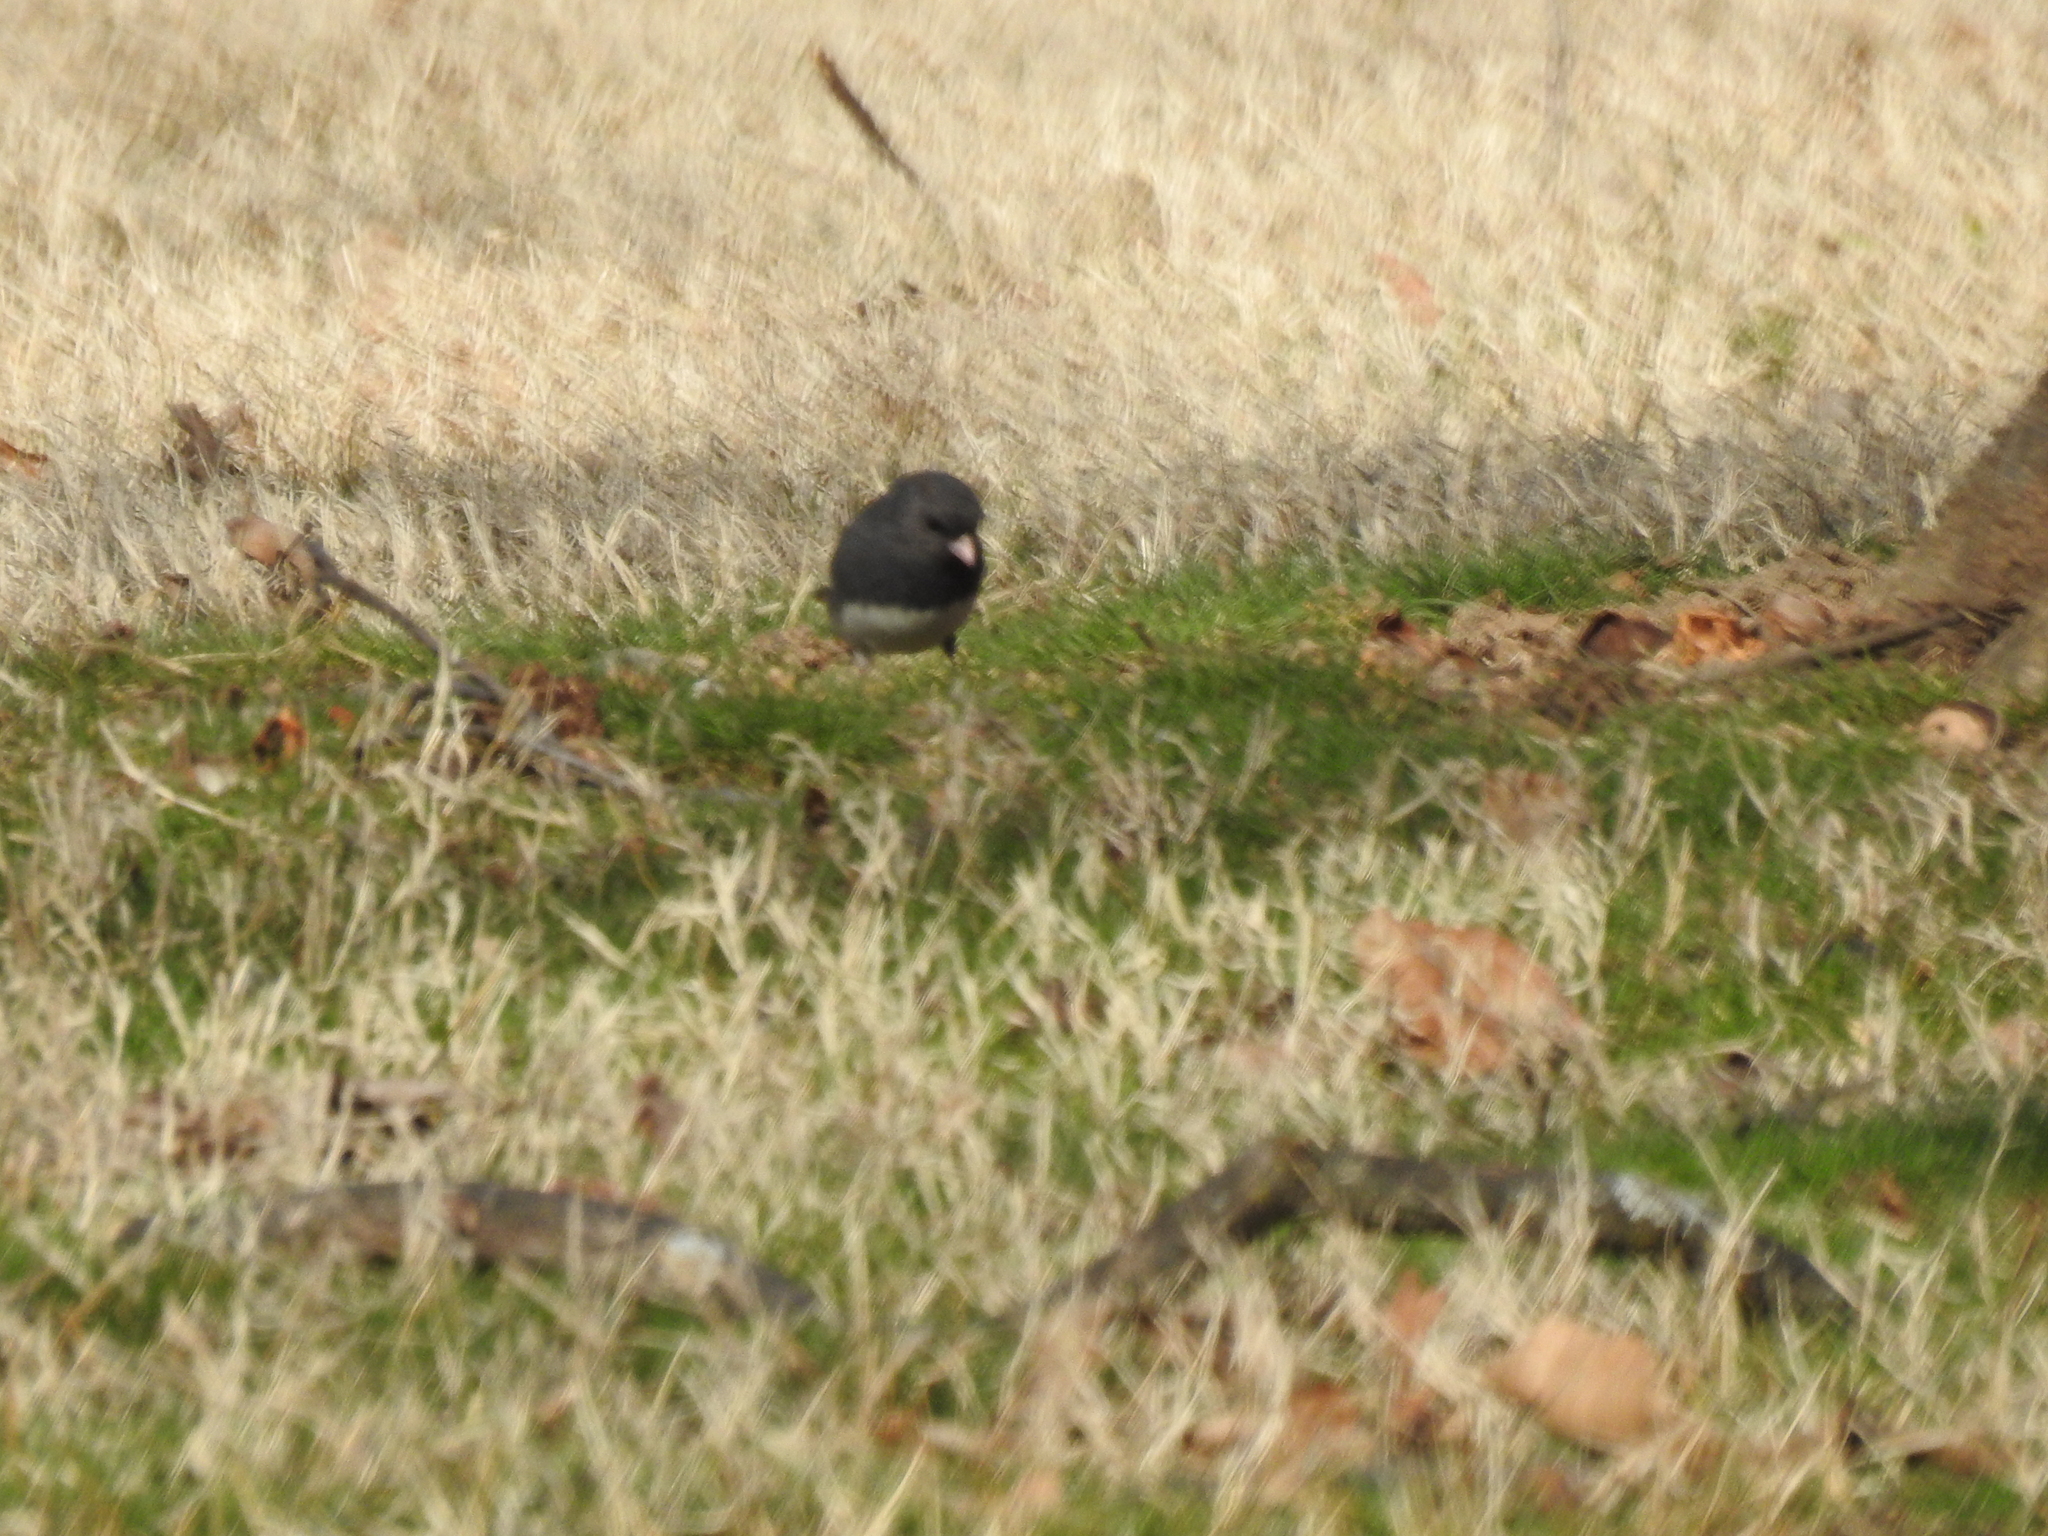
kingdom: Animalia
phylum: Chordata
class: Aves
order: Passeriformes
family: Passerellidae
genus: Junco
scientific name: Junco hyemalis
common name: Dark-eyed junco
